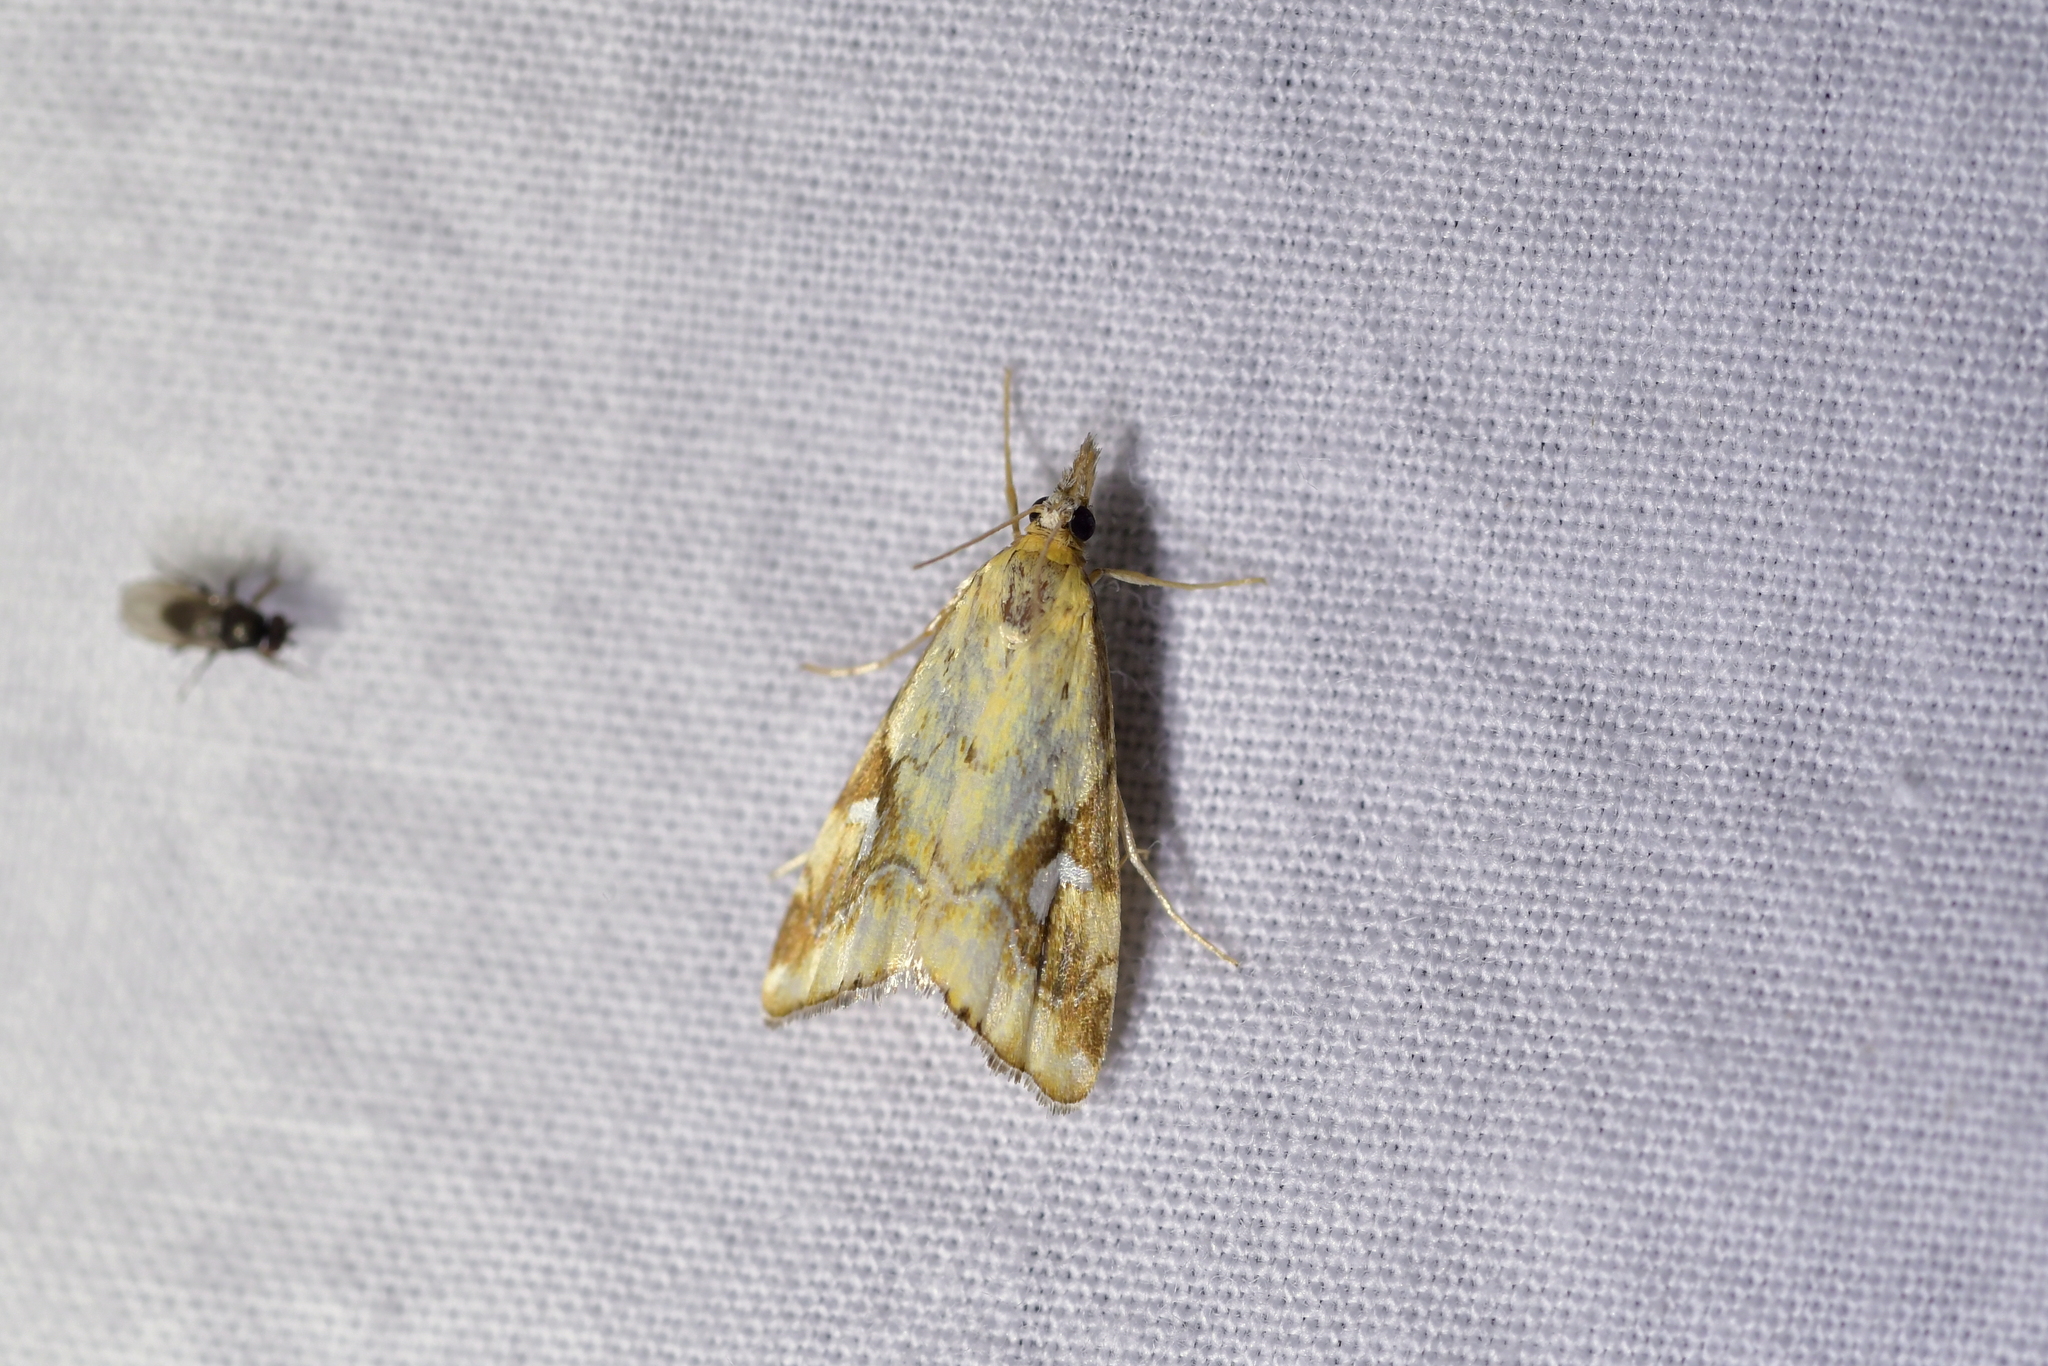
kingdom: Animalia
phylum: Arthropoda
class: Insecta
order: Lepidoptera
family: Crambidae
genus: Glaucocharis
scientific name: Glaucocharis lepidella
